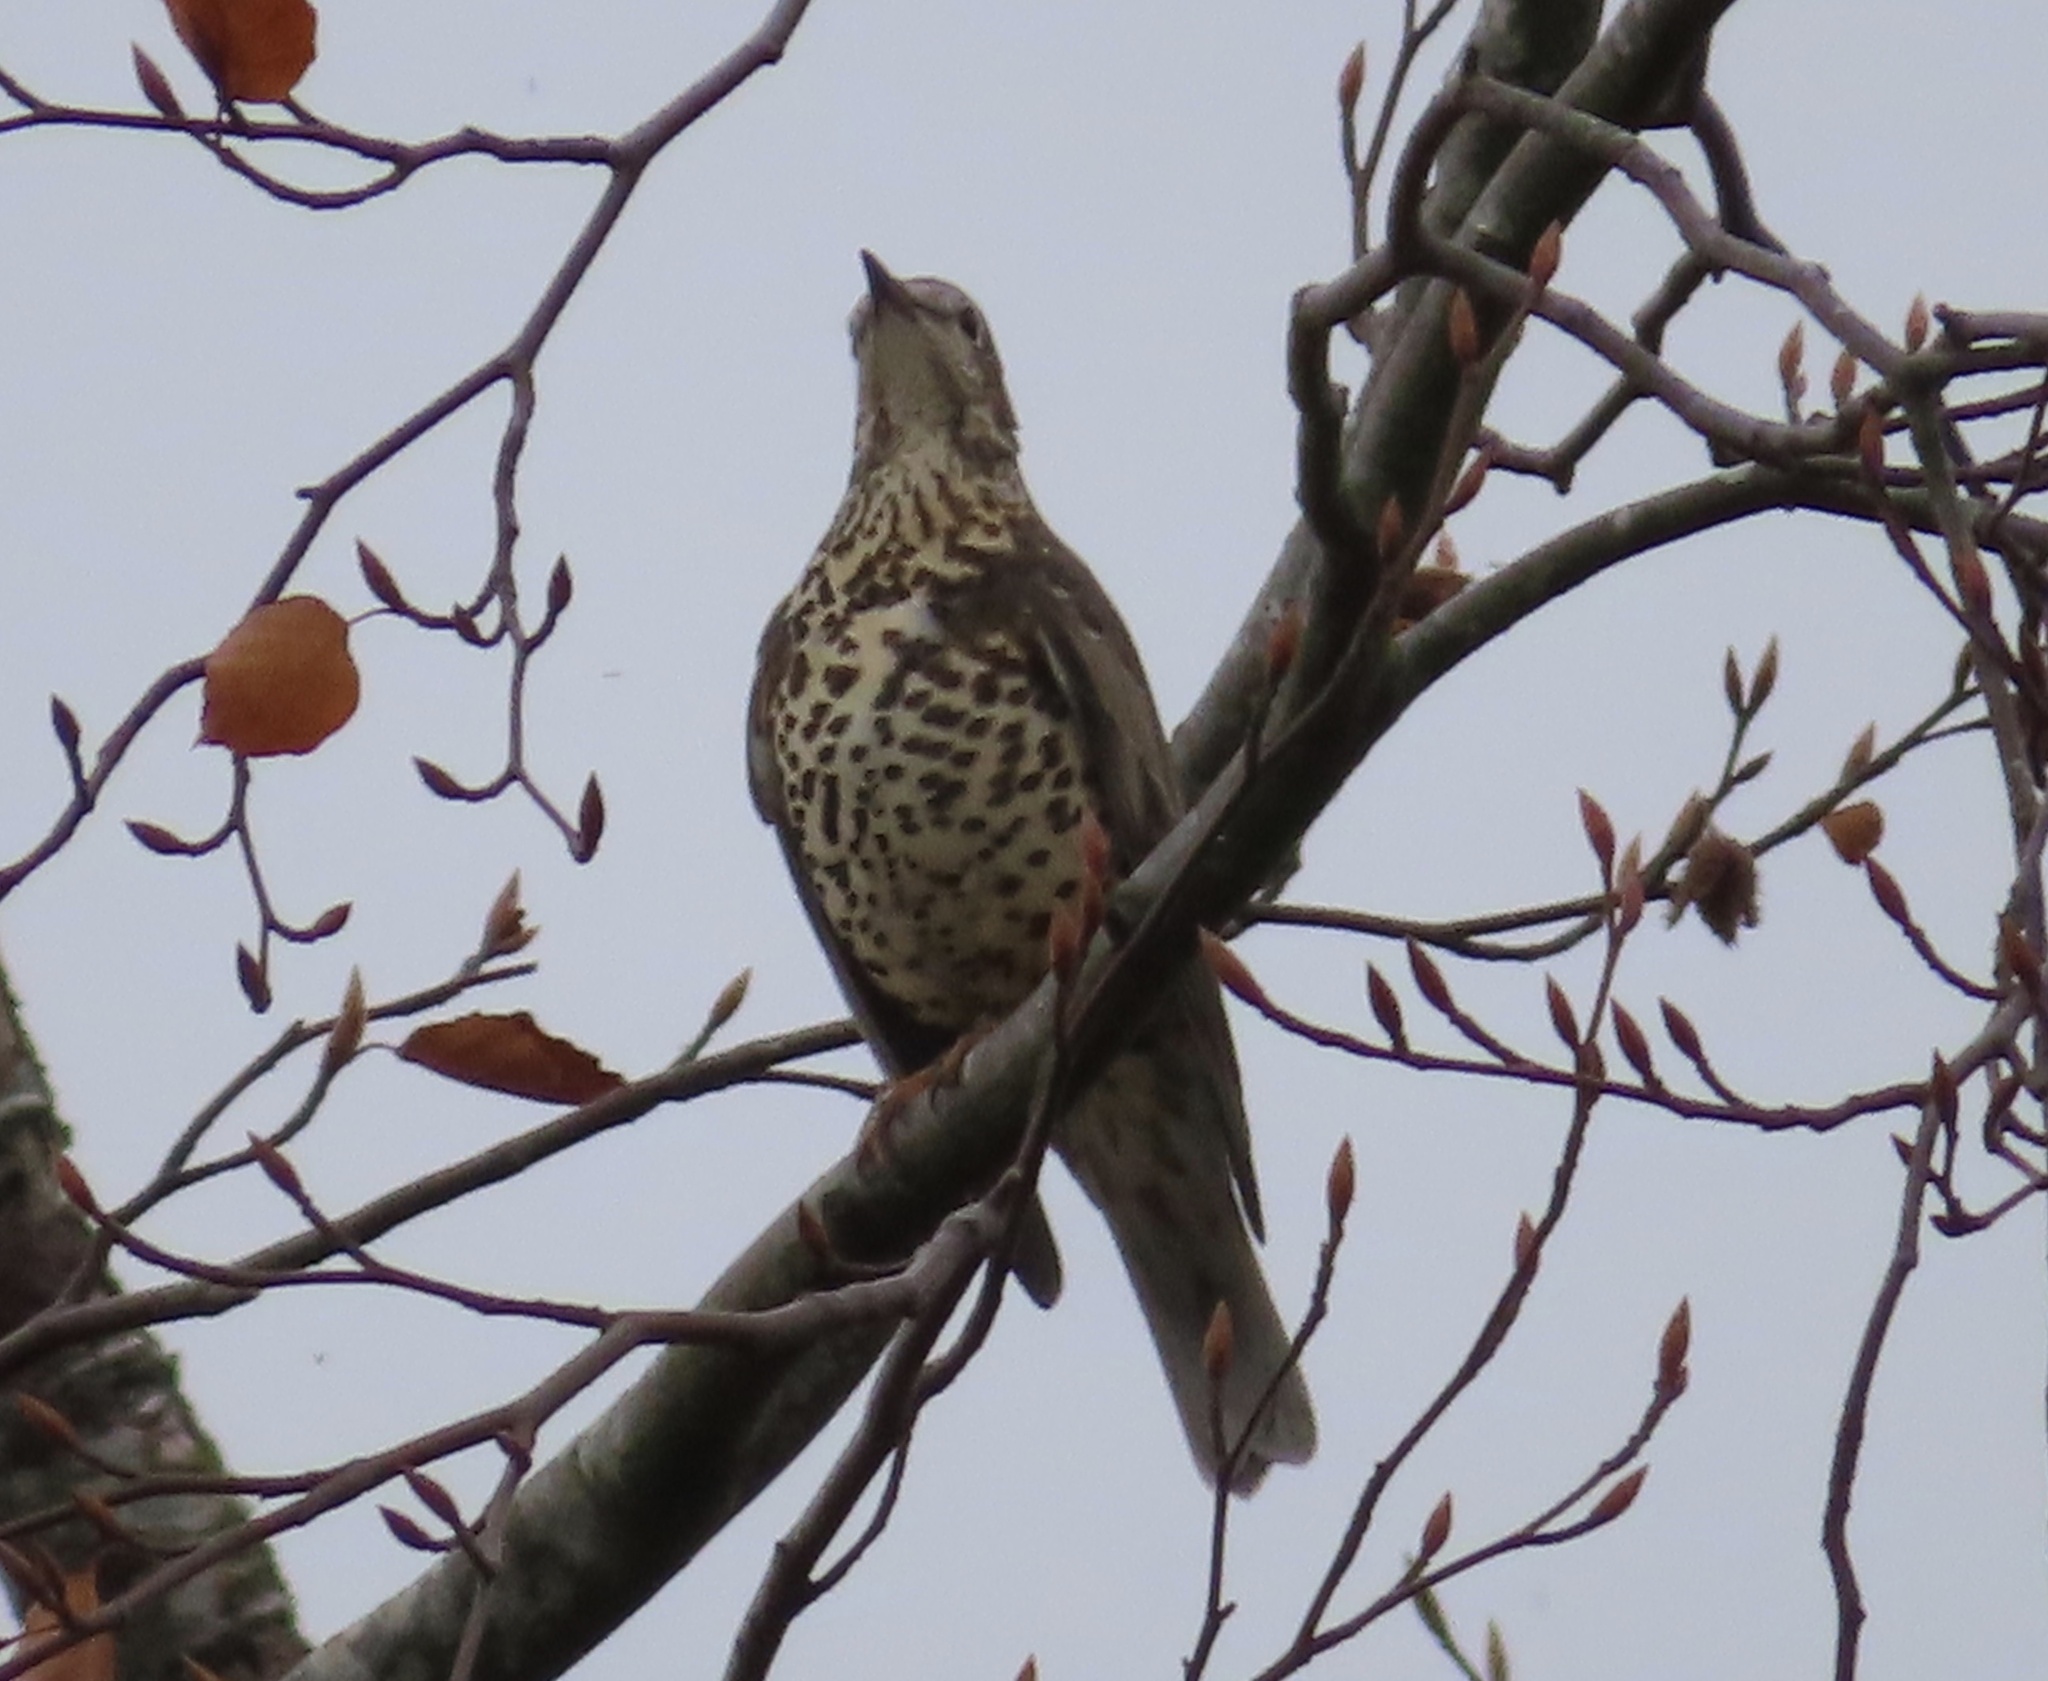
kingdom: Animalia
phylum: Chordata
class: Aves
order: Passeriformes
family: Turdidae
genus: Turdus
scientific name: Turdus viscivorus
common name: Mistle thrush
